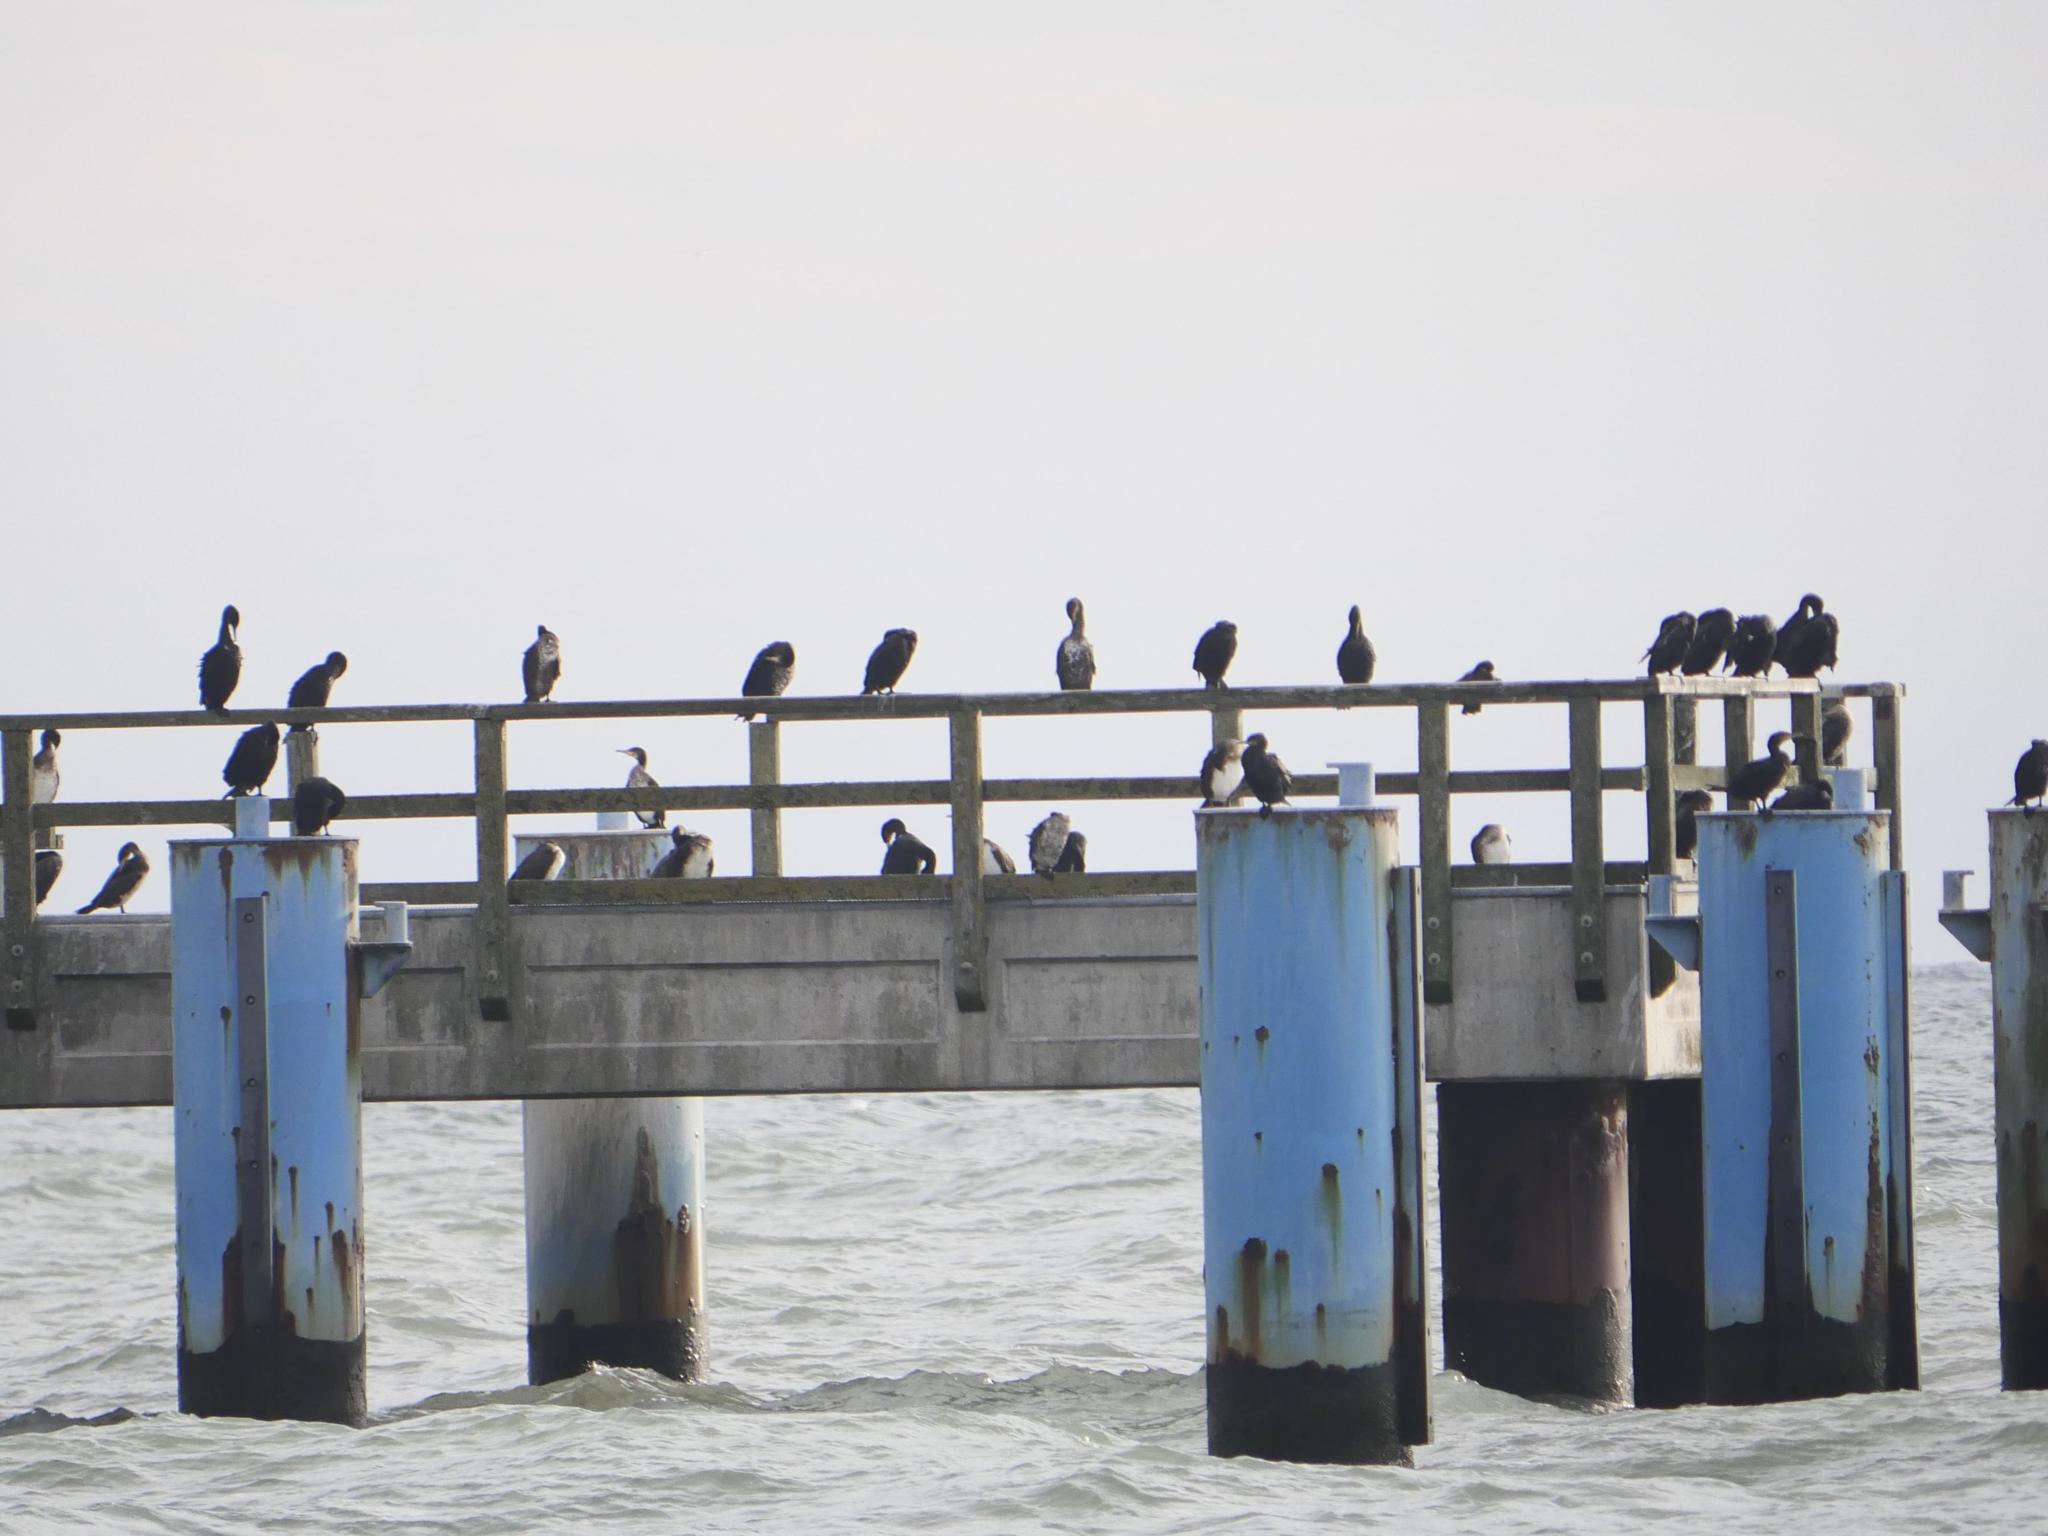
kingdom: Animalia
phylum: Chordata
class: Aves
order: Suliformes
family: Phalacrocoracidae
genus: Phalacrocorax
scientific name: Phalacrocorax carbo
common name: Great cormorant
